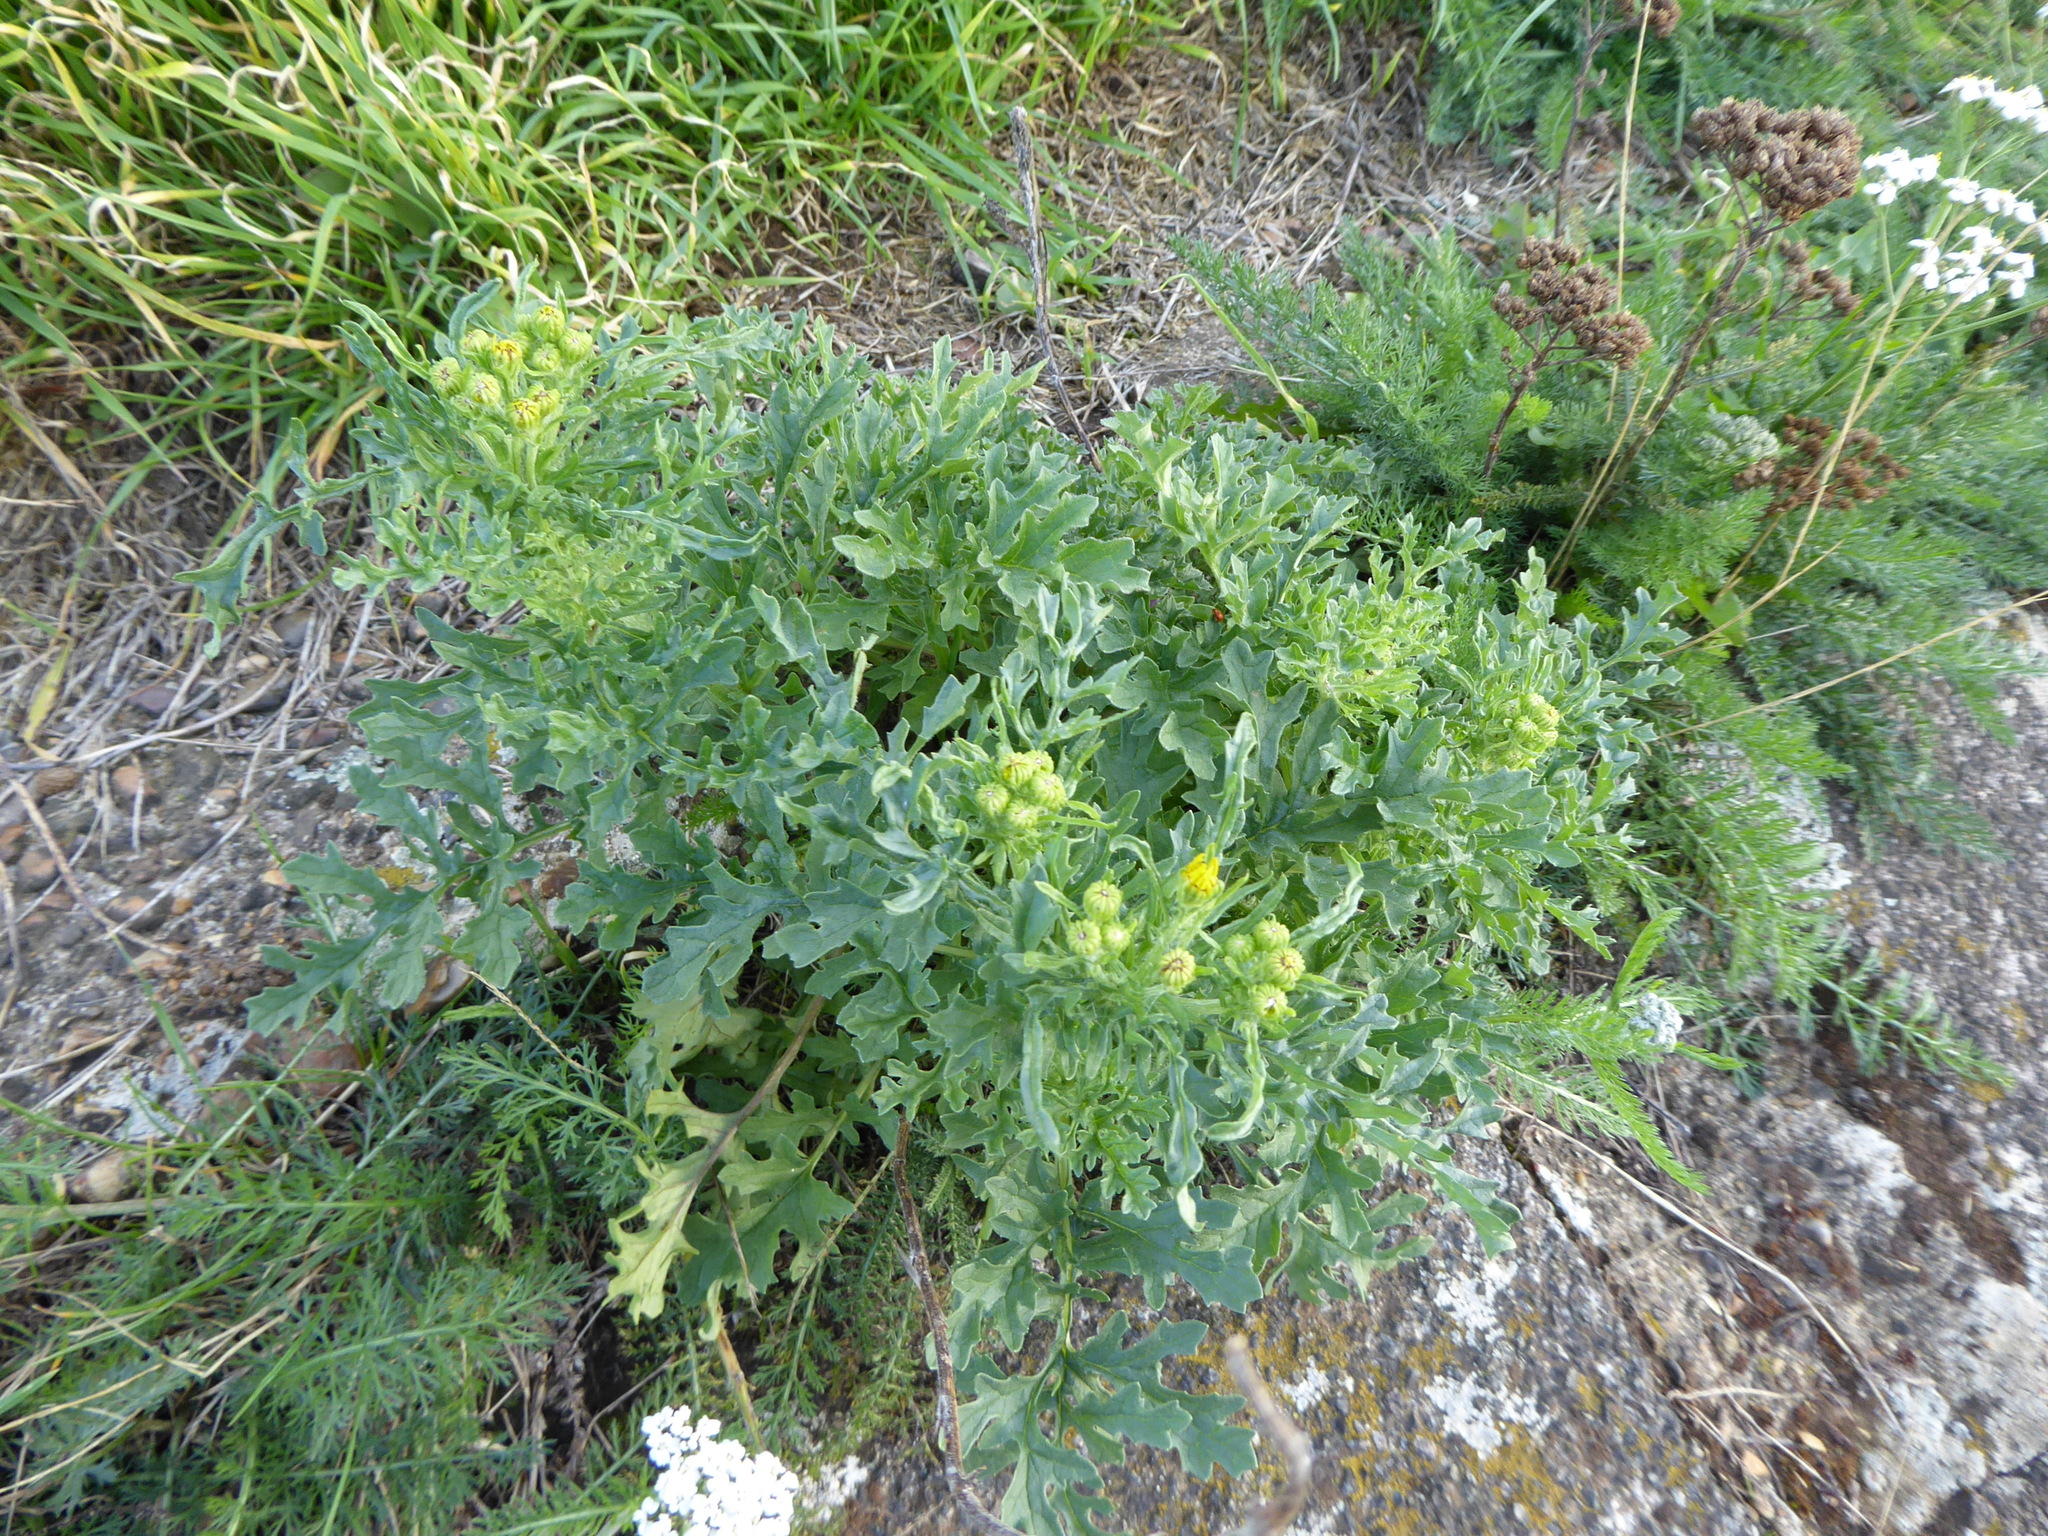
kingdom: Plantae
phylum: Tracheophyta
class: Magnoliopsida
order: Asterales
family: Asteraceae
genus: Jacobaea
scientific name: Jacobaea vulgaris
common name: Stinking willie
